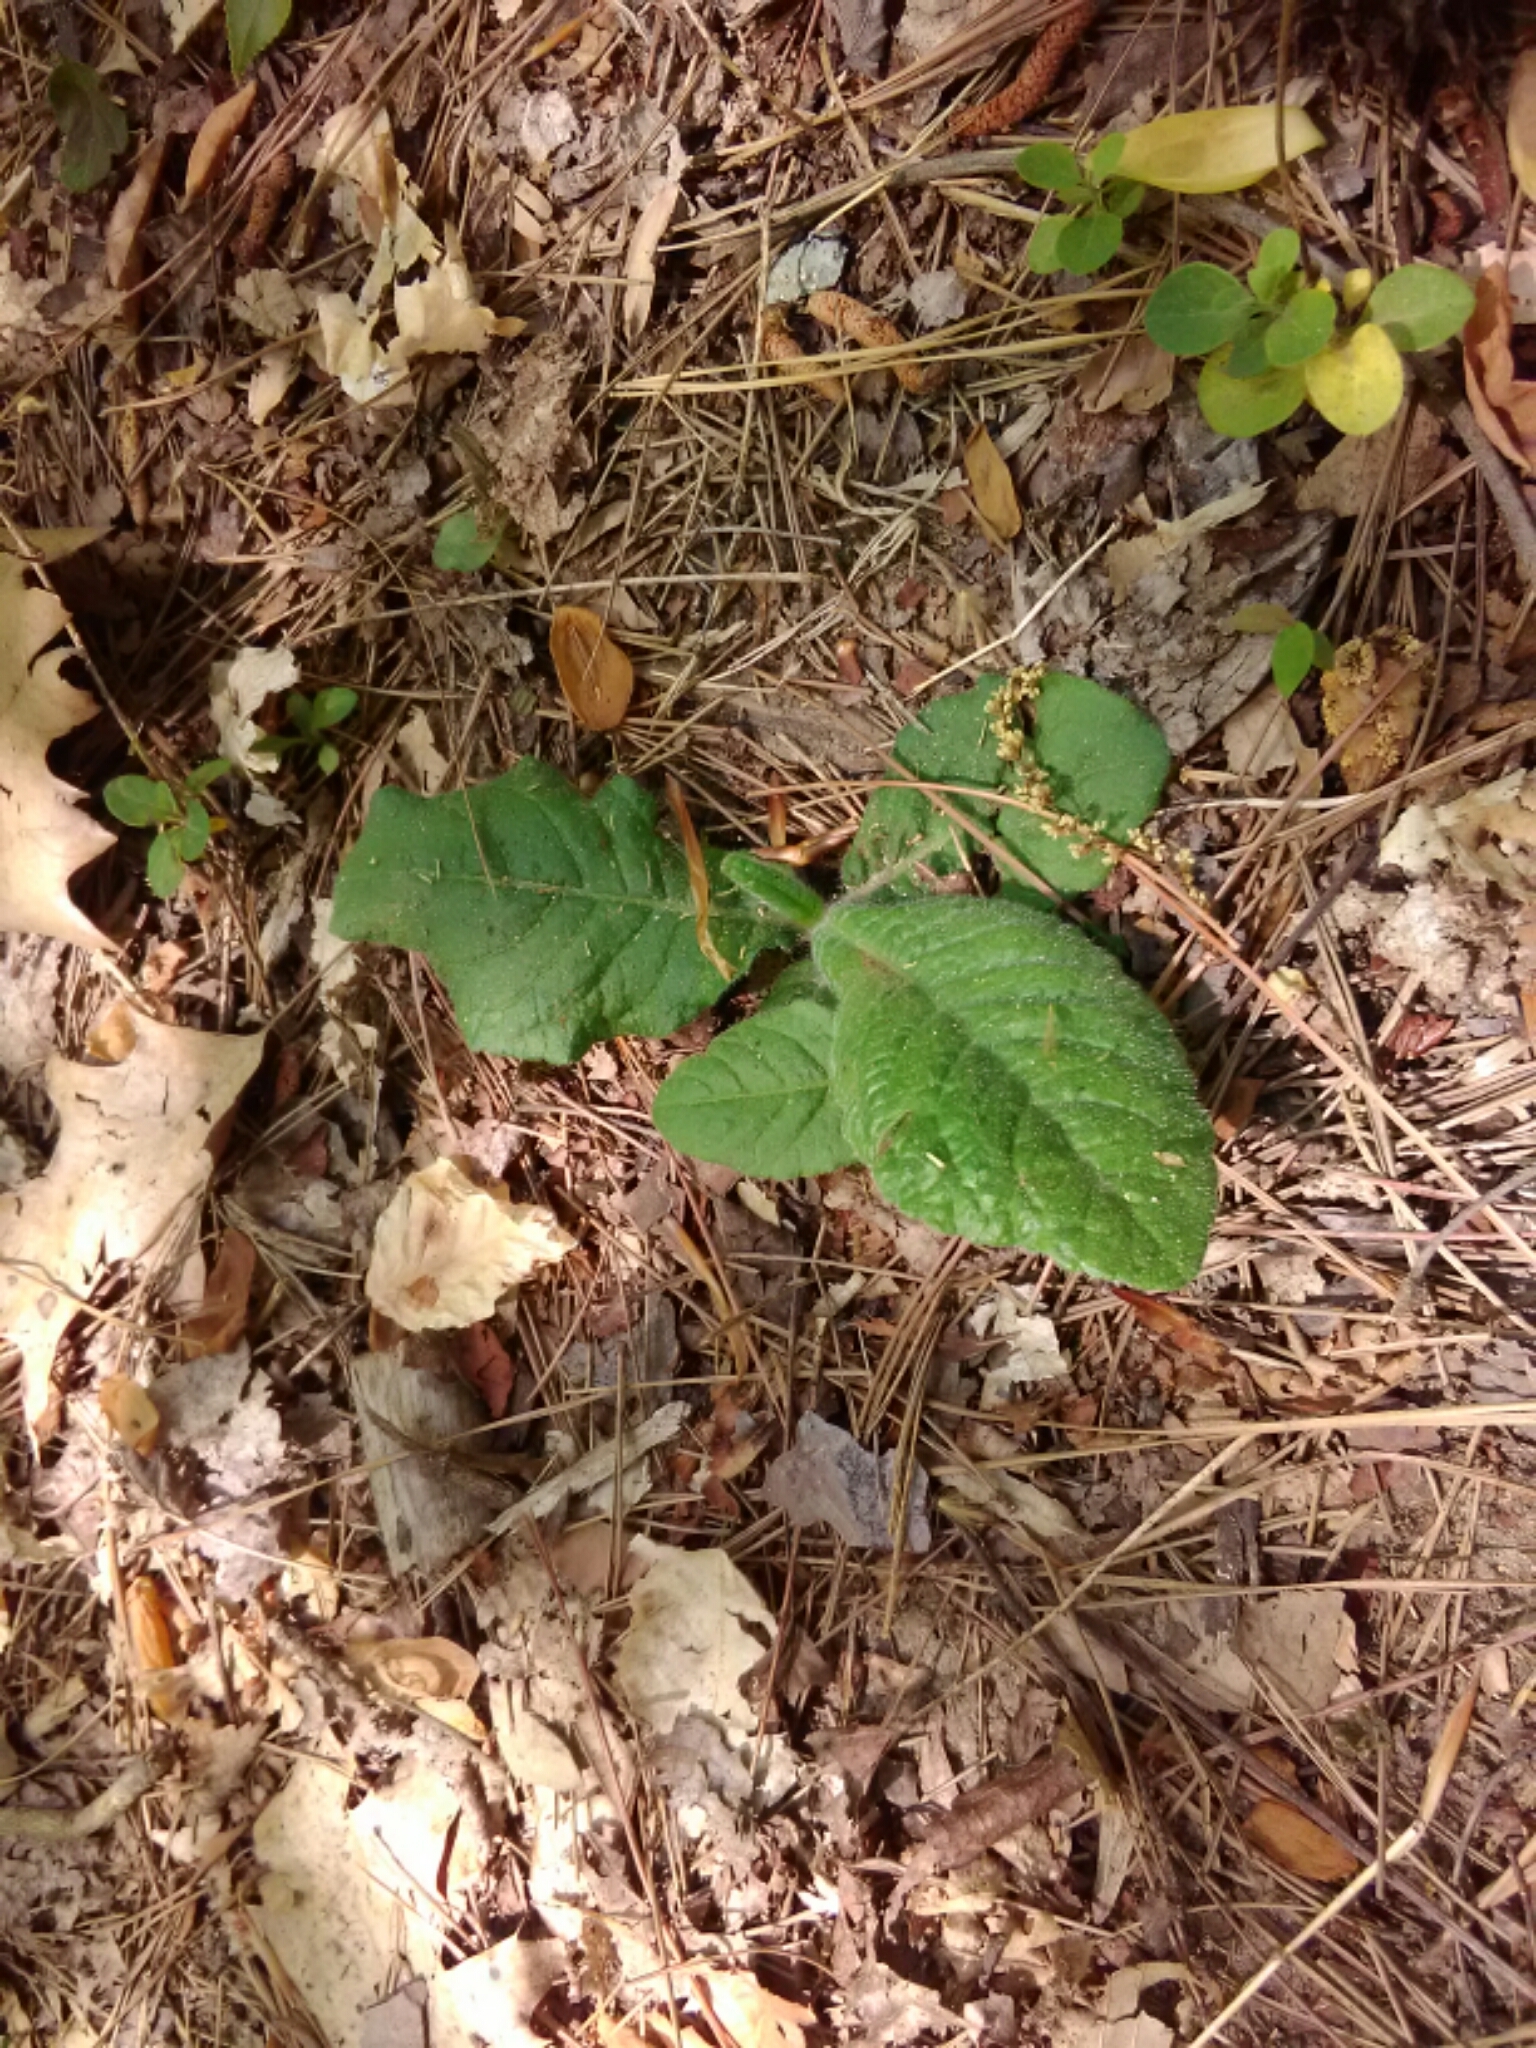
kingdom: Plantae
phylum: Tracheophyta
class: Magnoliopsida
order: Asterales
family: Asteraceae
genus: Elephantopus
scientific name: Elephantopus tomentosus
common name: Tobacco-weed
